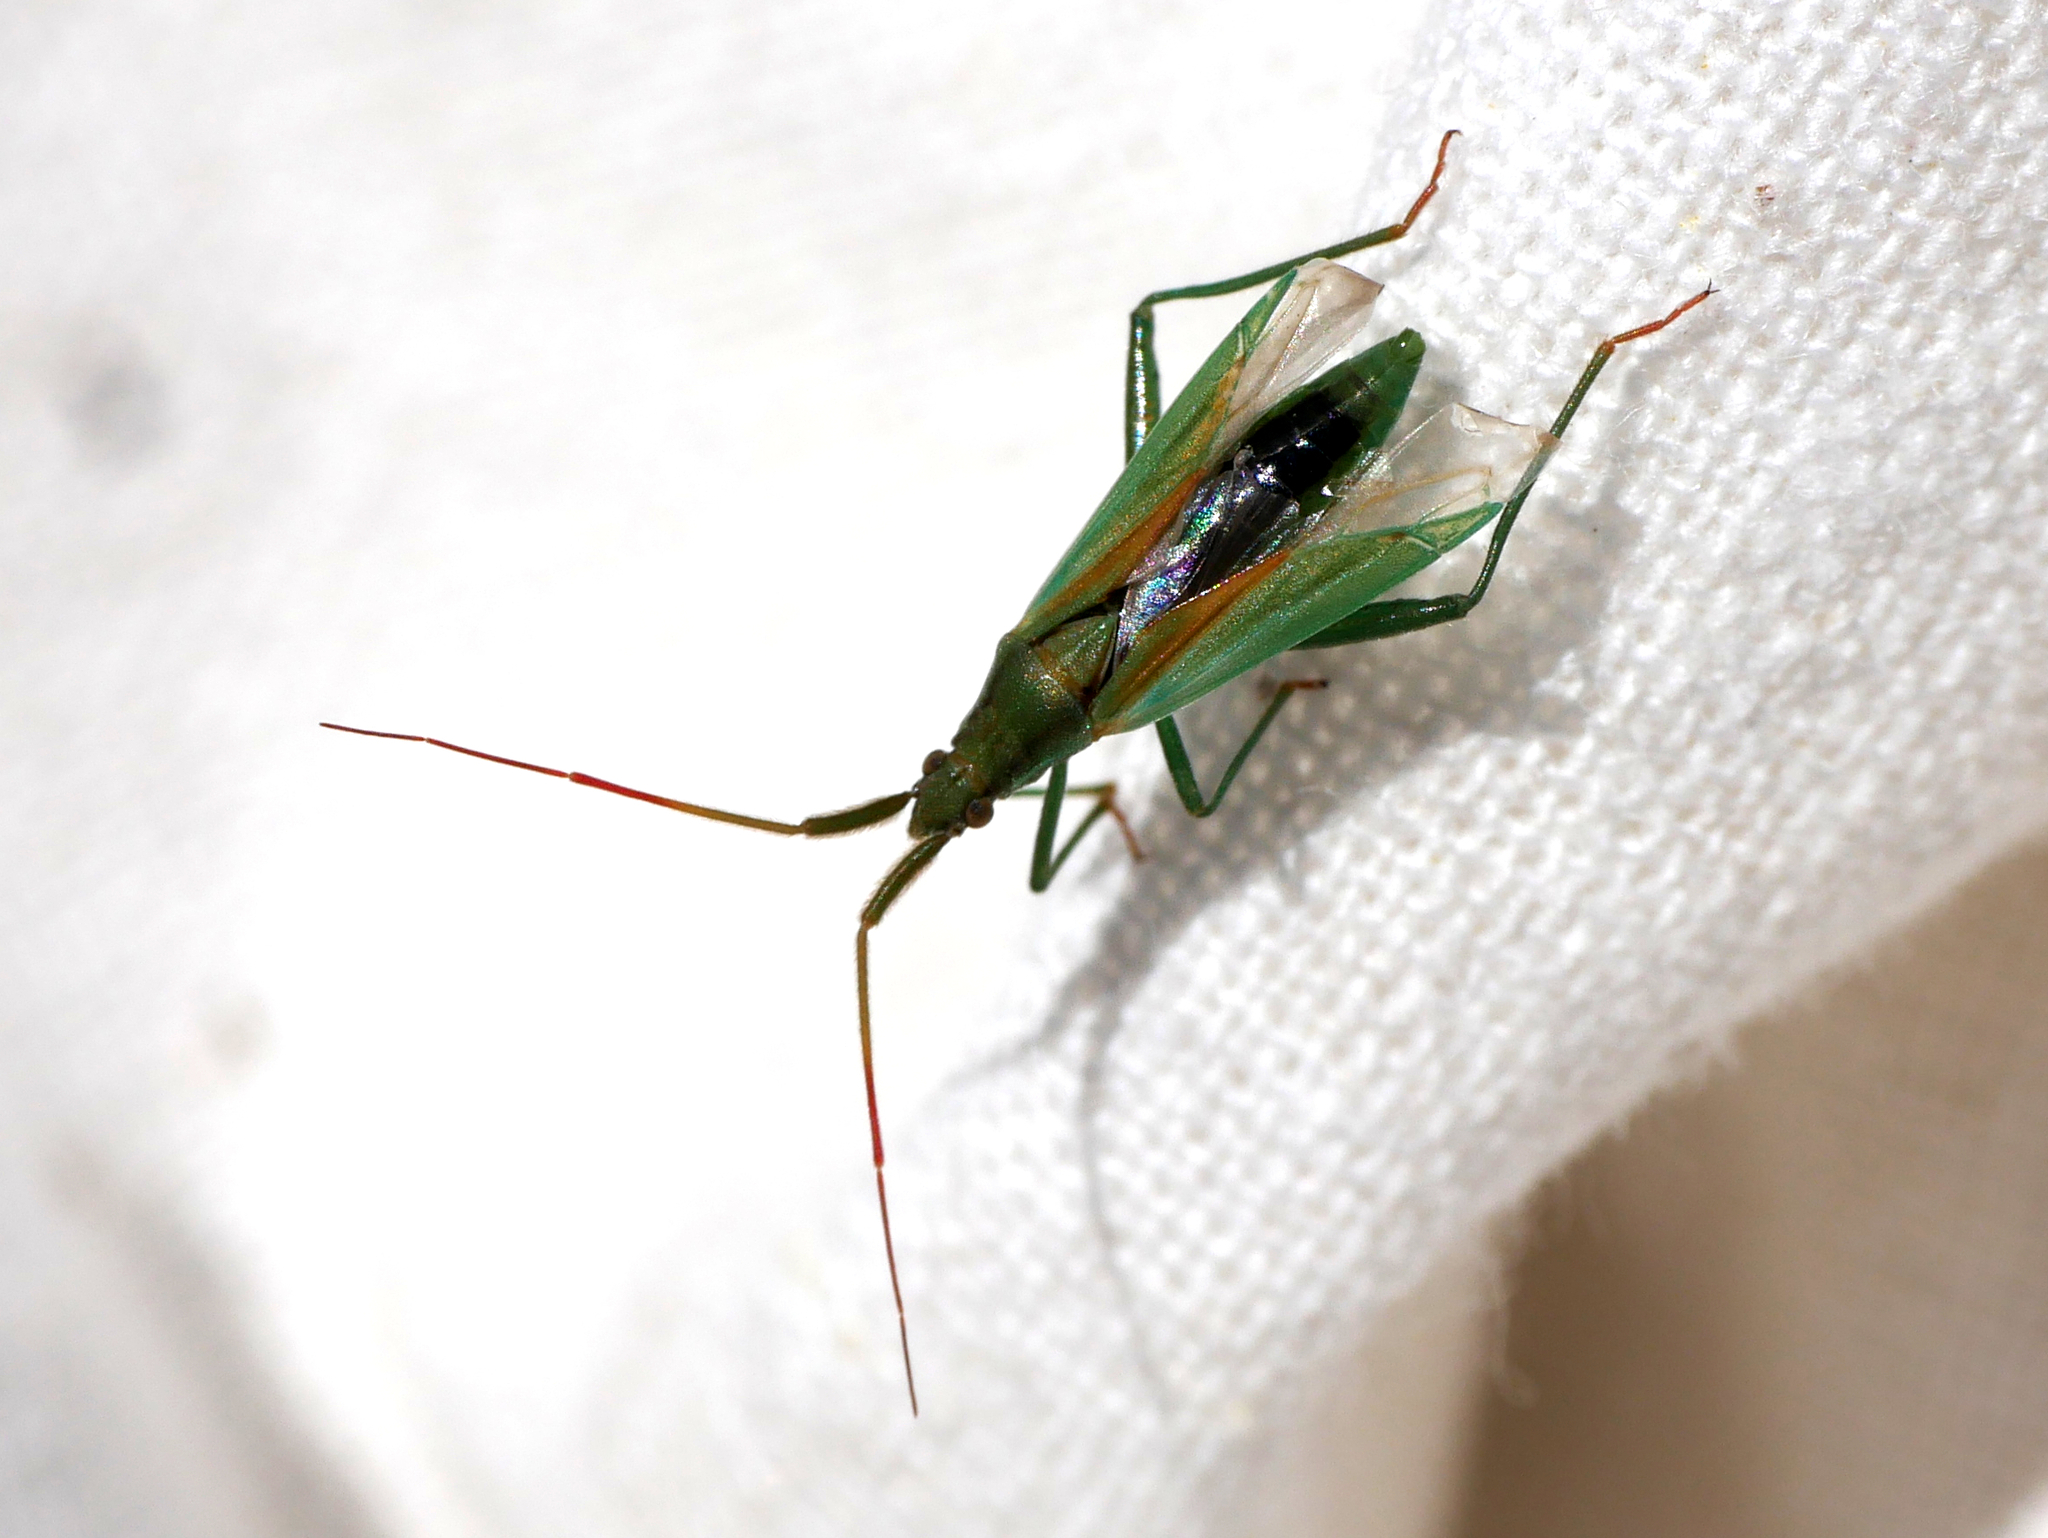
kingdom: Animalia
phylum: Arthropoda
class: Insecta
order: Hemiptera
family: Miridae
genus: Stenodema
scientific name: Stenodema laevigata
